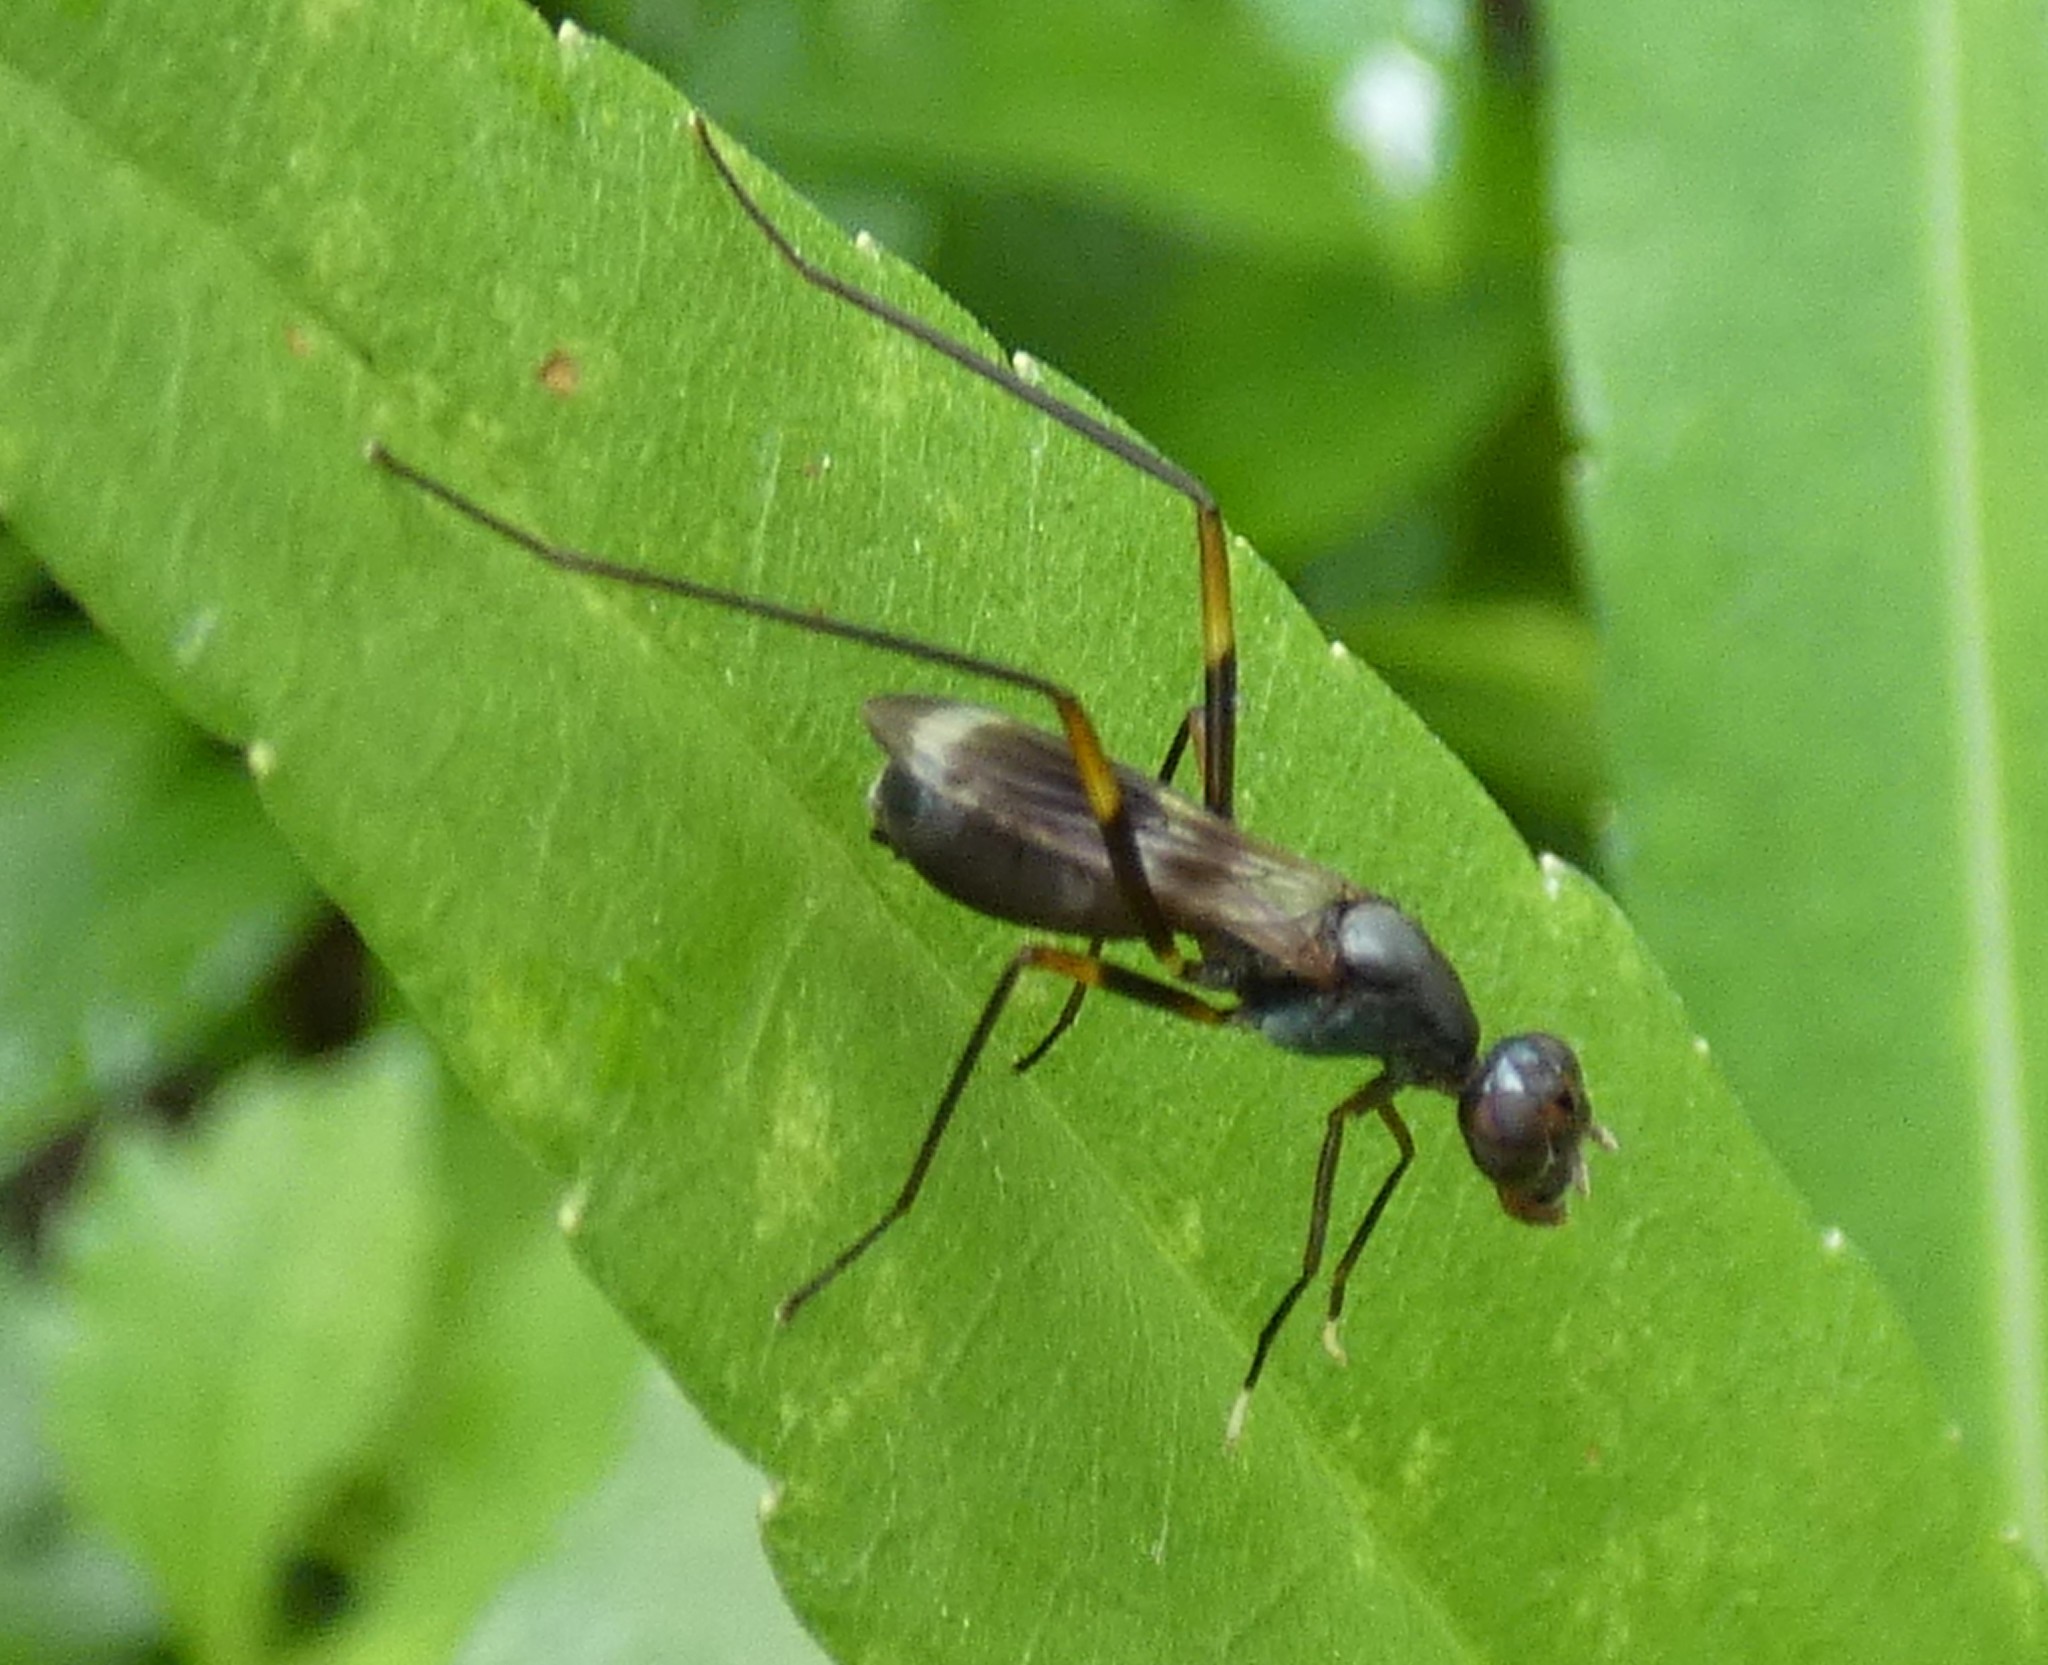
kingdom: Animalia
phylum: Arthropoda
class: Insecta
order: Diptera
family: Micropezidae
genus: Taeniaptera
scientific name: Taeniaptera trivittata
